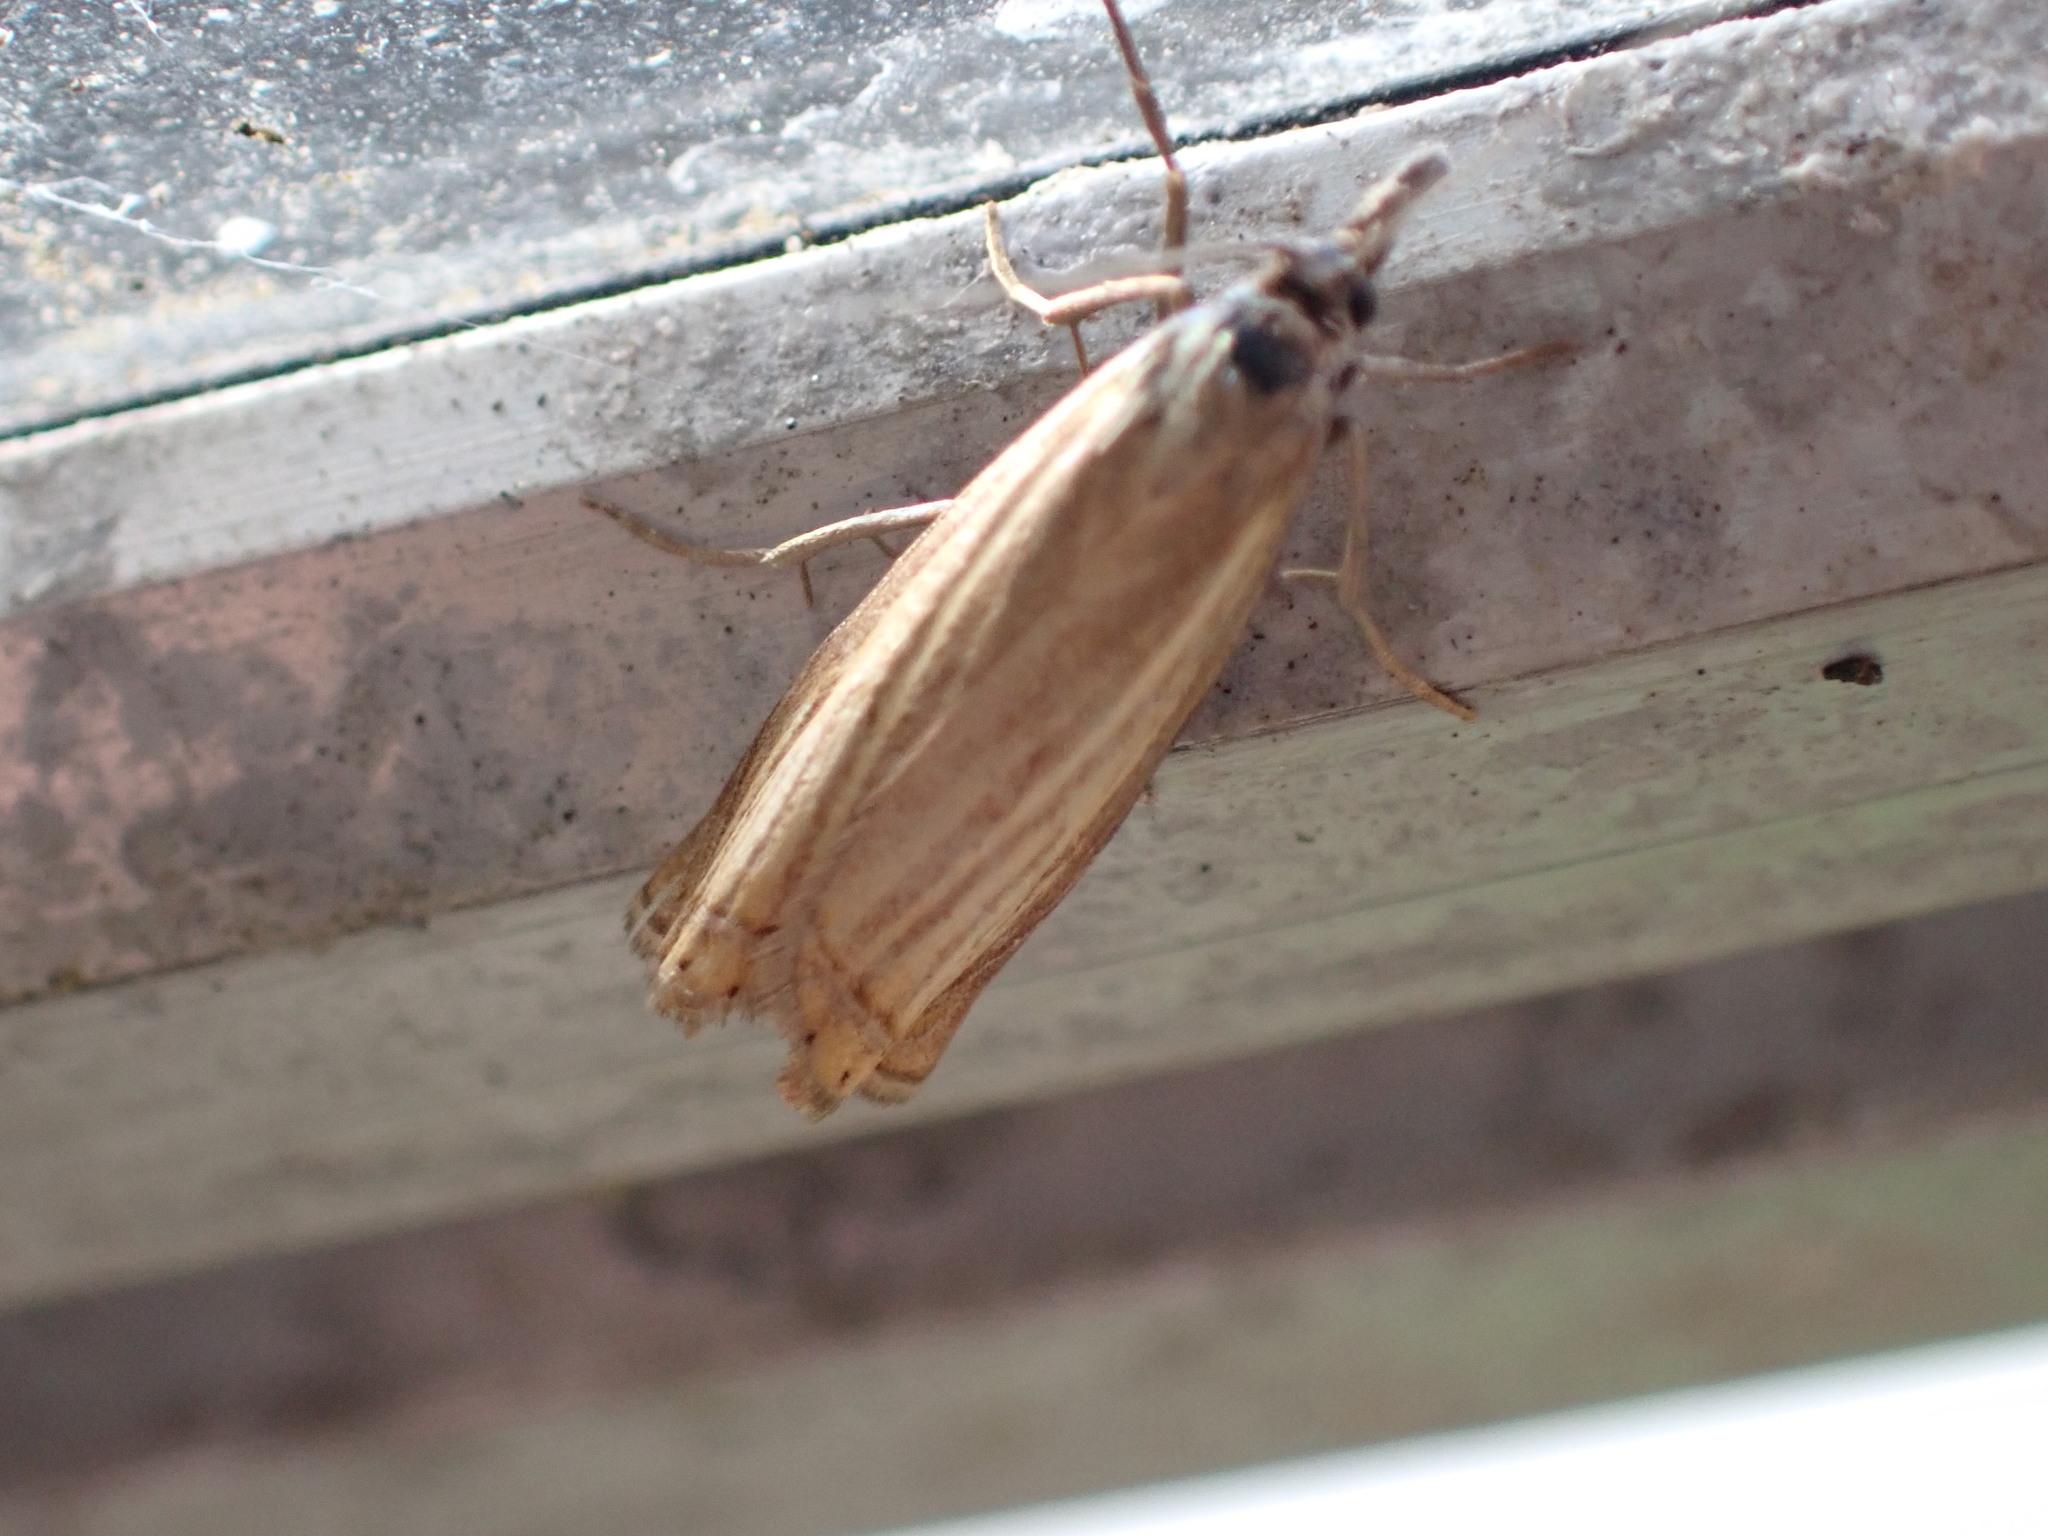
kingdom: Animalia
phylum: Arthropoda
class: Insecta
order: Lepidoptera
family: Crambidae
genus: Chrysoteuchia
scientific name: Chrysoteuchia culmella
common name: Garden grass-veneer
